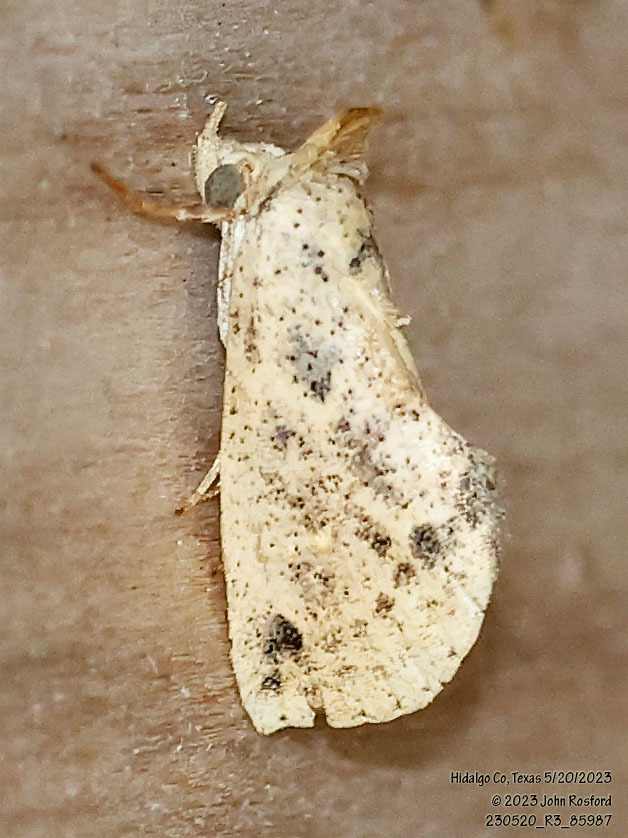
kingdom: Animalia
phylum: Arthropoda
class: Insecta
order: Lepidoptera
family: Erebidae
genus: Isogona
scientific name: Isogona snowi
